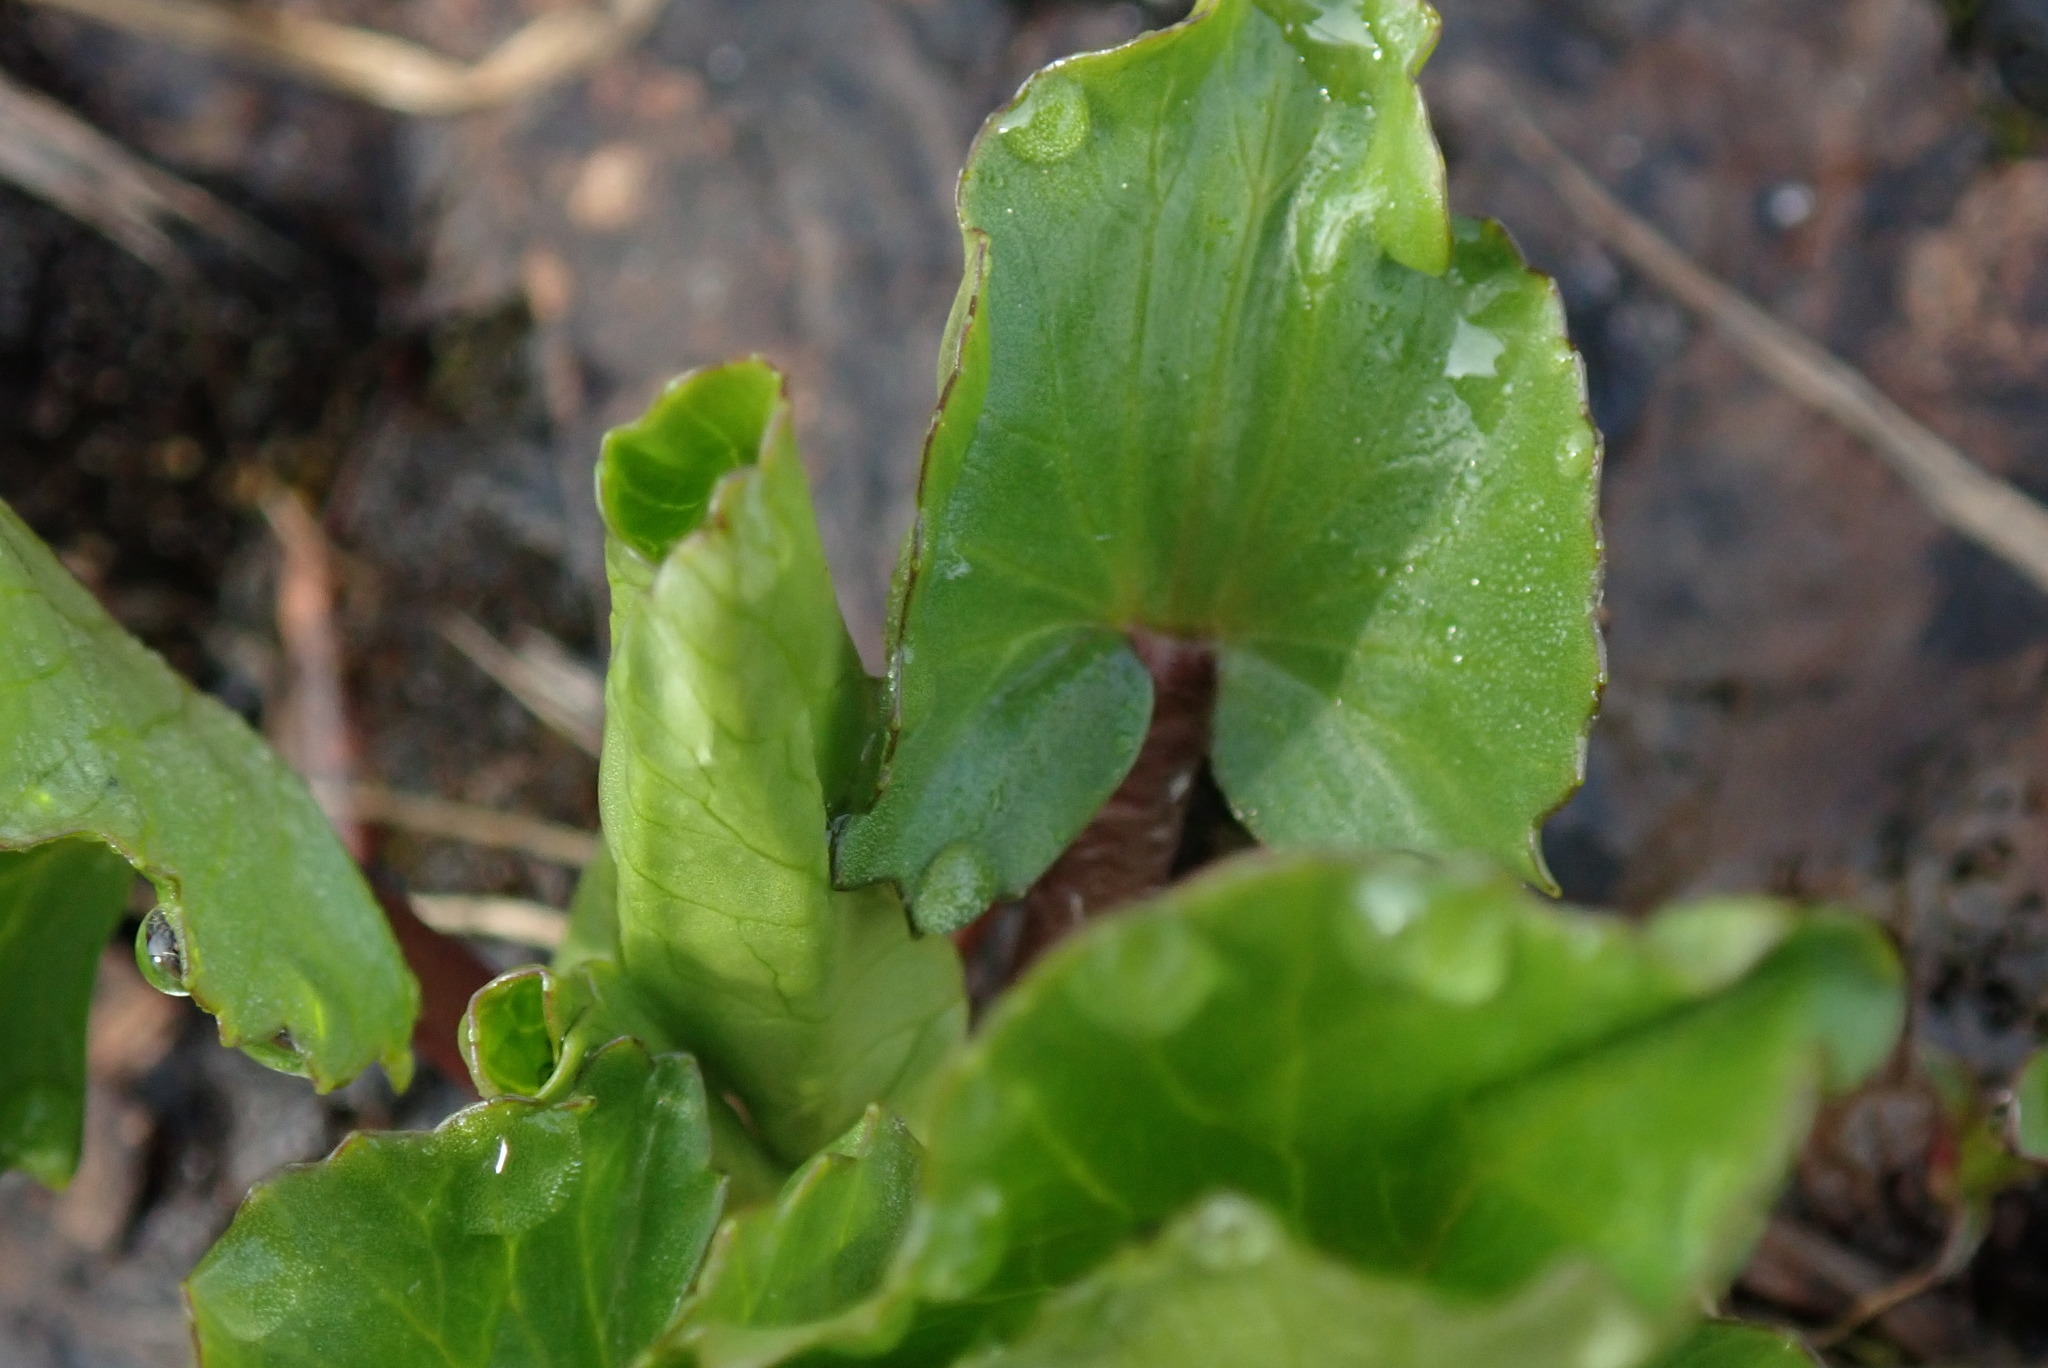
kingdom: Plantae
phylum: Tracheophyta
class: Magnoliopsida
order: Ranunculales
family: Ranunculaceae
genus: Caltha
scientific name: Caltha leptosepala
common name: Elkslip
